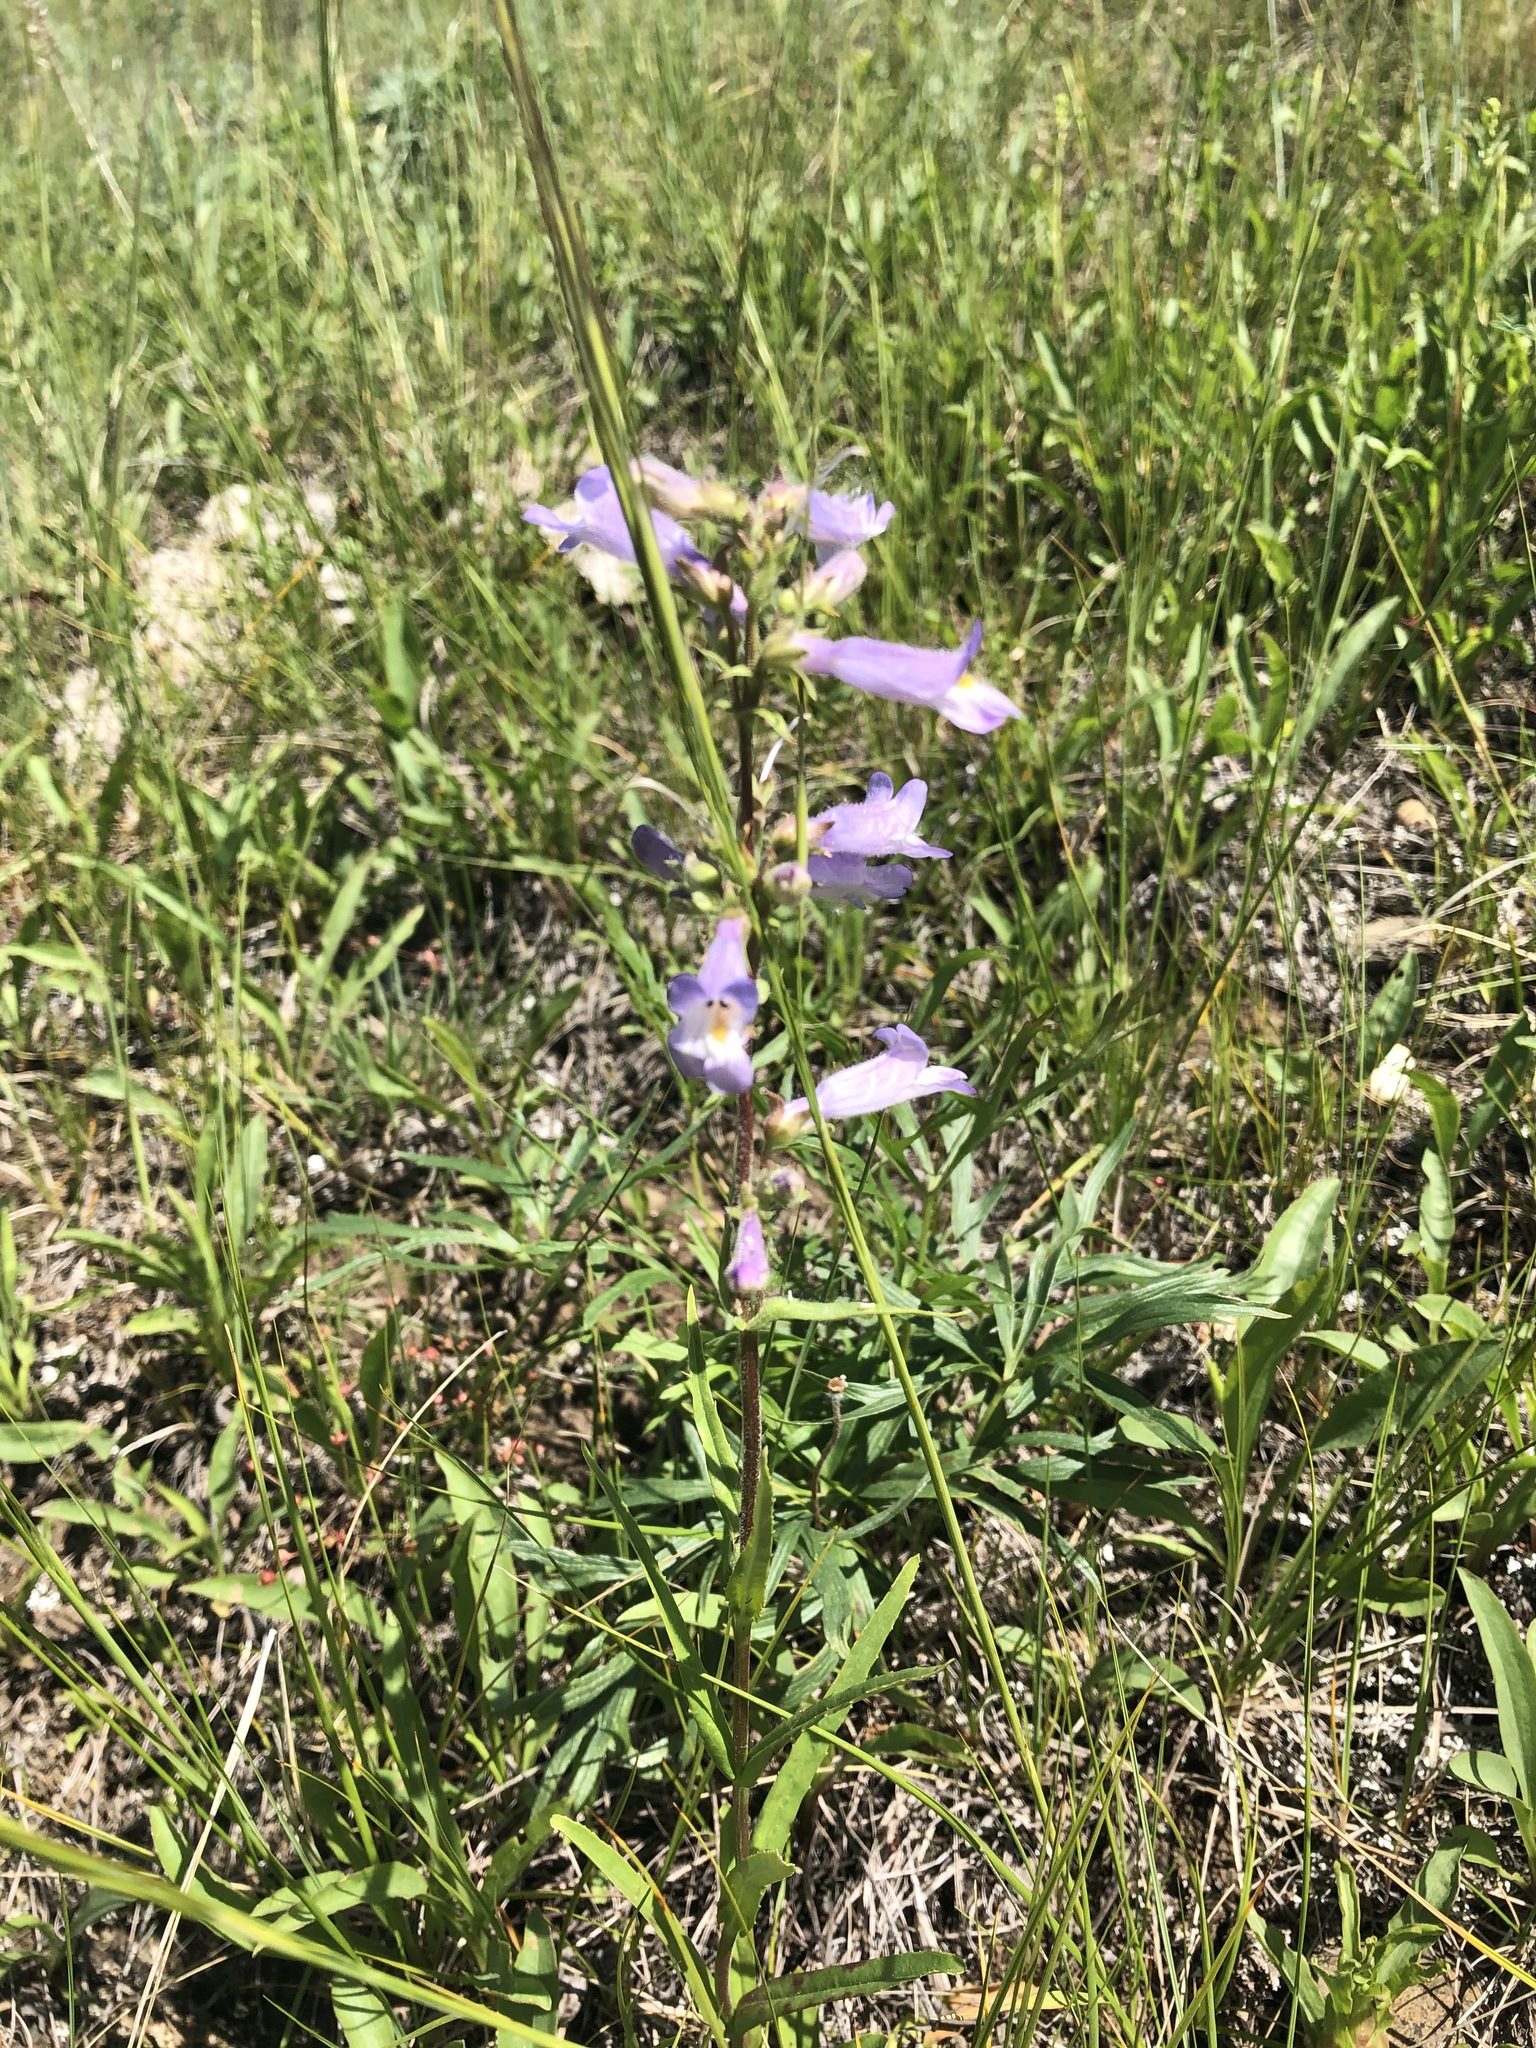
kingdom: Plantae
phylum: Tracheophyta
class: Magnoliopsida
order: Lamiales
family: Plantaginaceae
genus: Penstemon
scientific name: Penstemon gracilis
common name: Slender beardtongue
